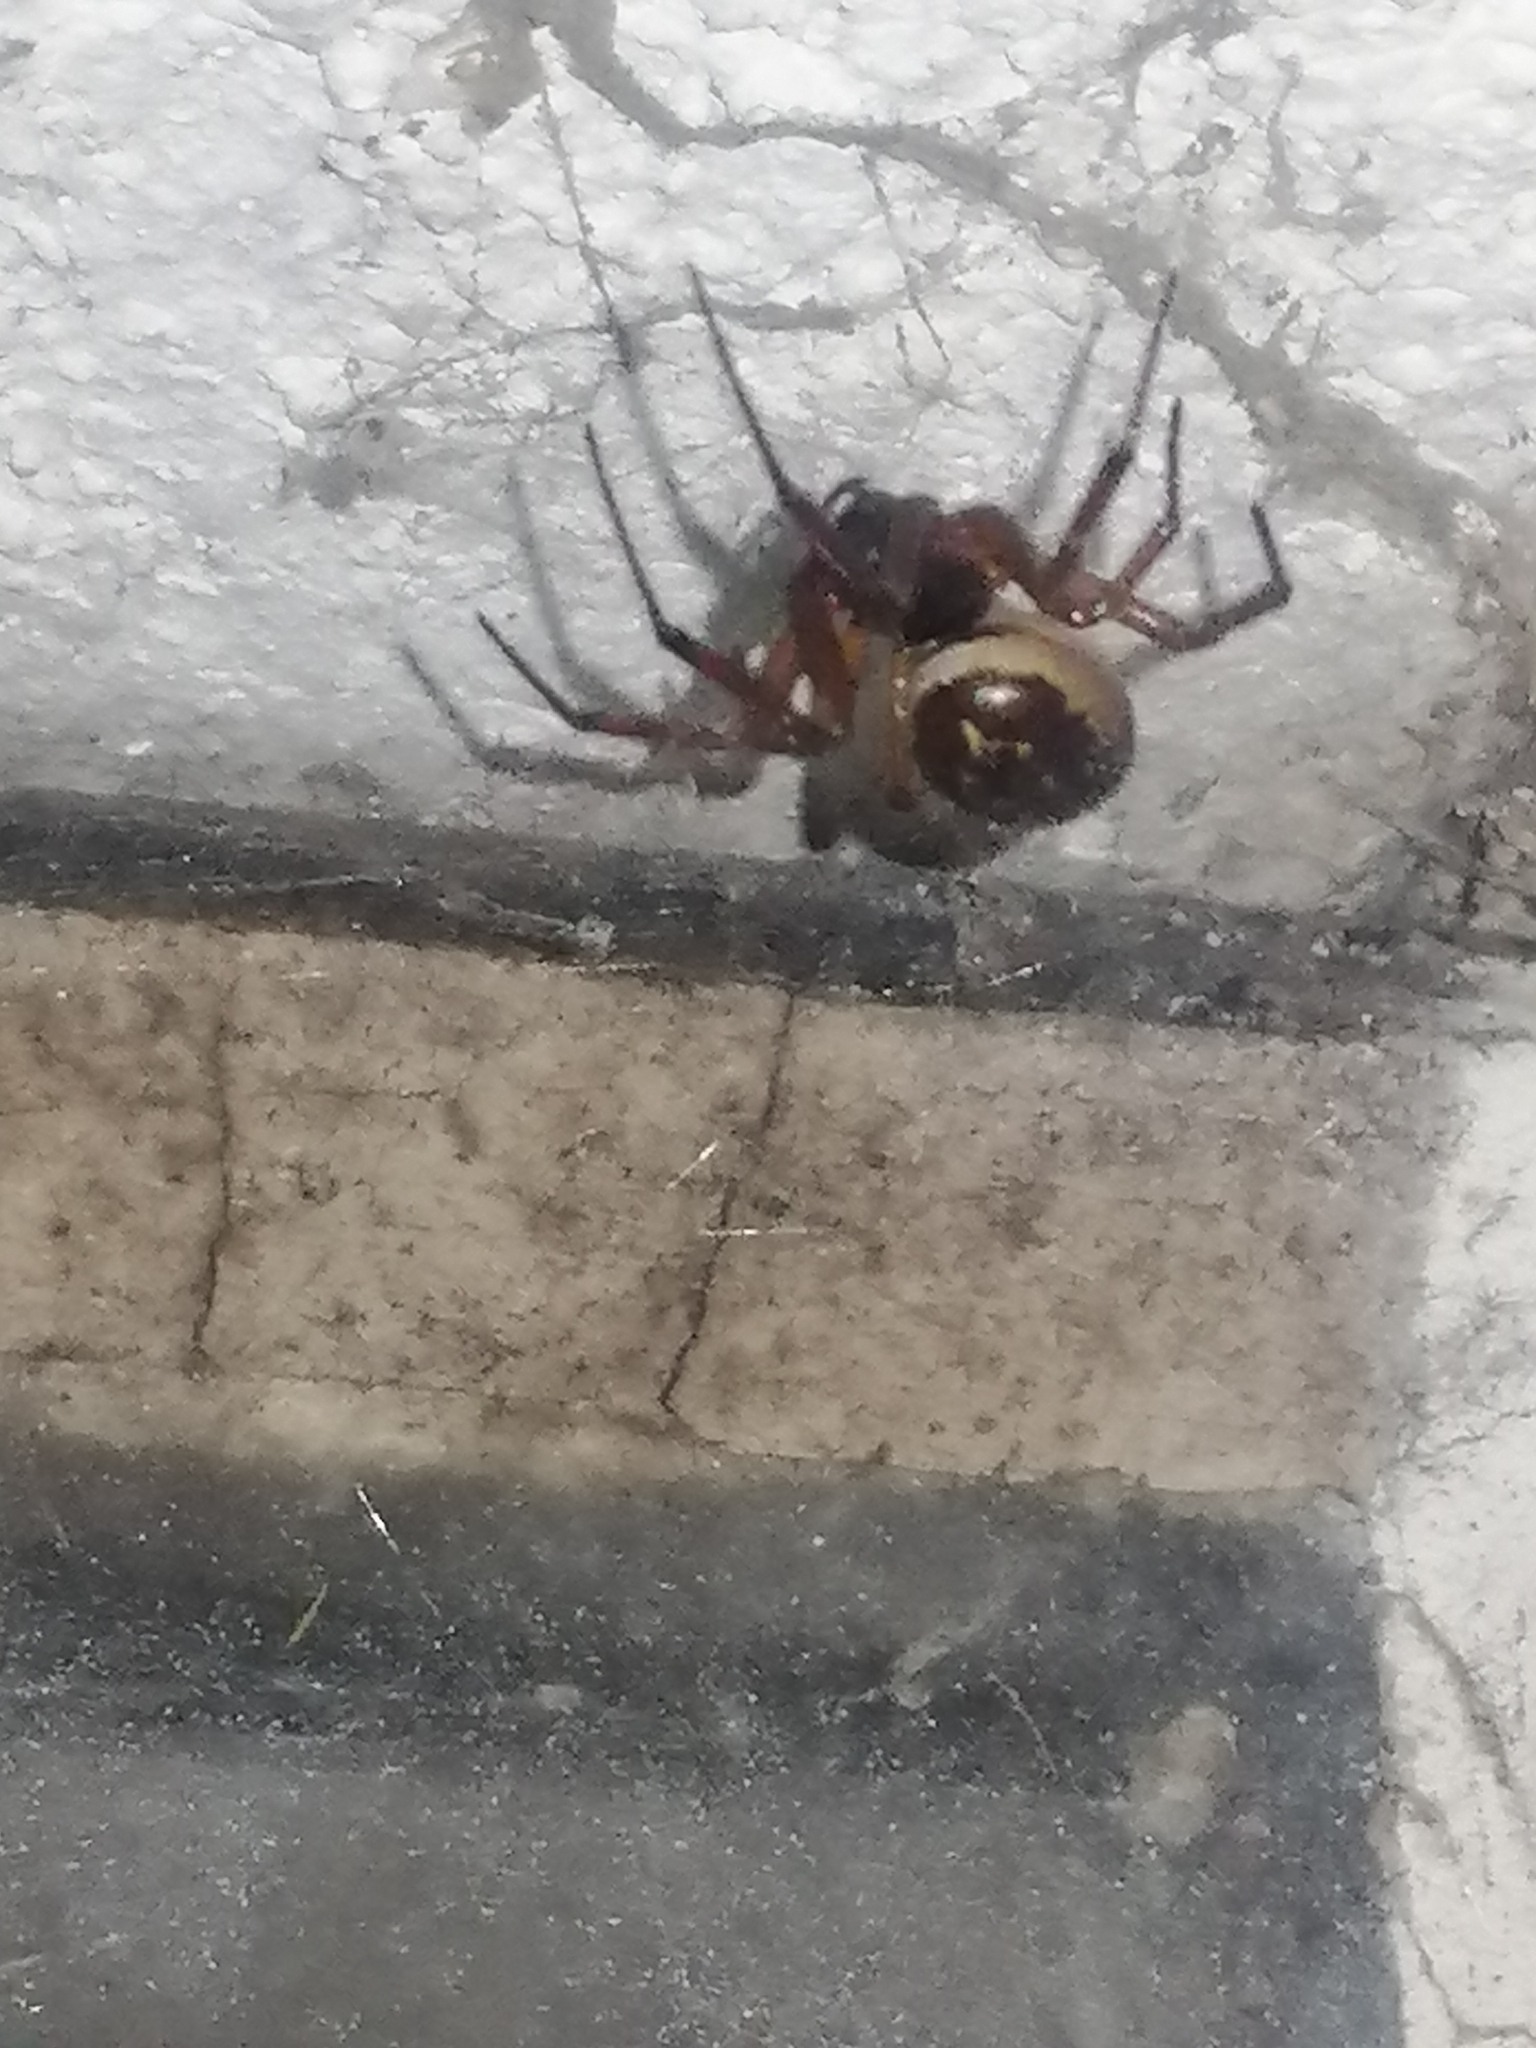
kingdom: Animalia
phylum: Arthropoda
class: Arachnida
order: Araneae
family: Theridiidae
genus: Steatoda
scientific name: Steatoda nobilis
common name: Cobweb weaver
